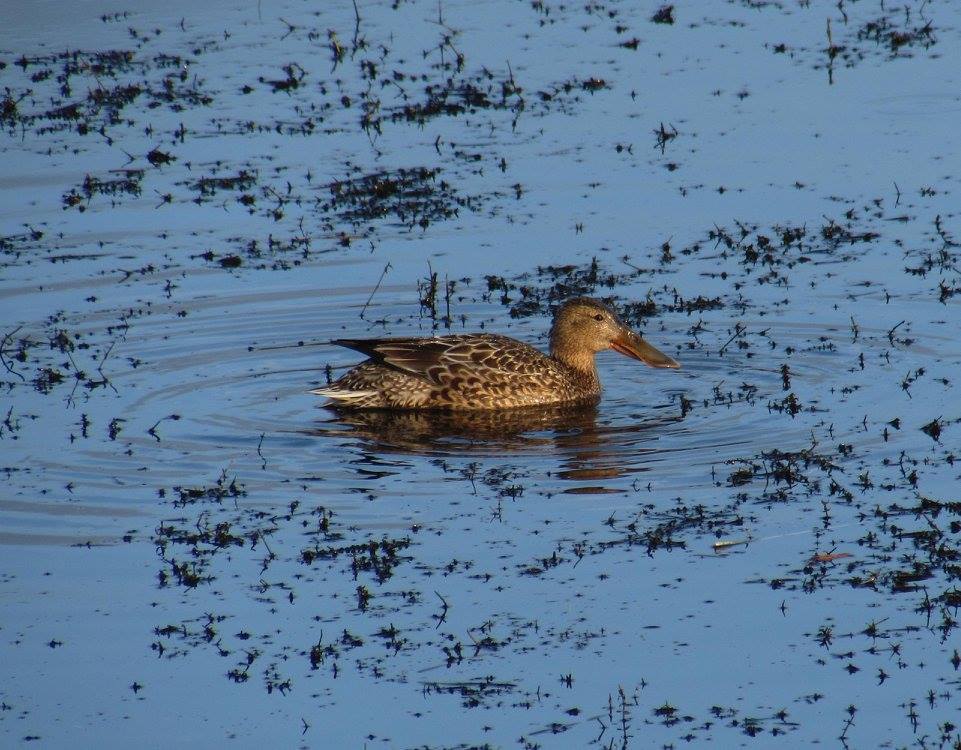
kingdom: Animalia
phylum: Chordata
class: Aves
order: Anseriformes
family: Anatidae
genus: Spatula
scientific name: Spatula clypeata
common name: Northern shoveler
